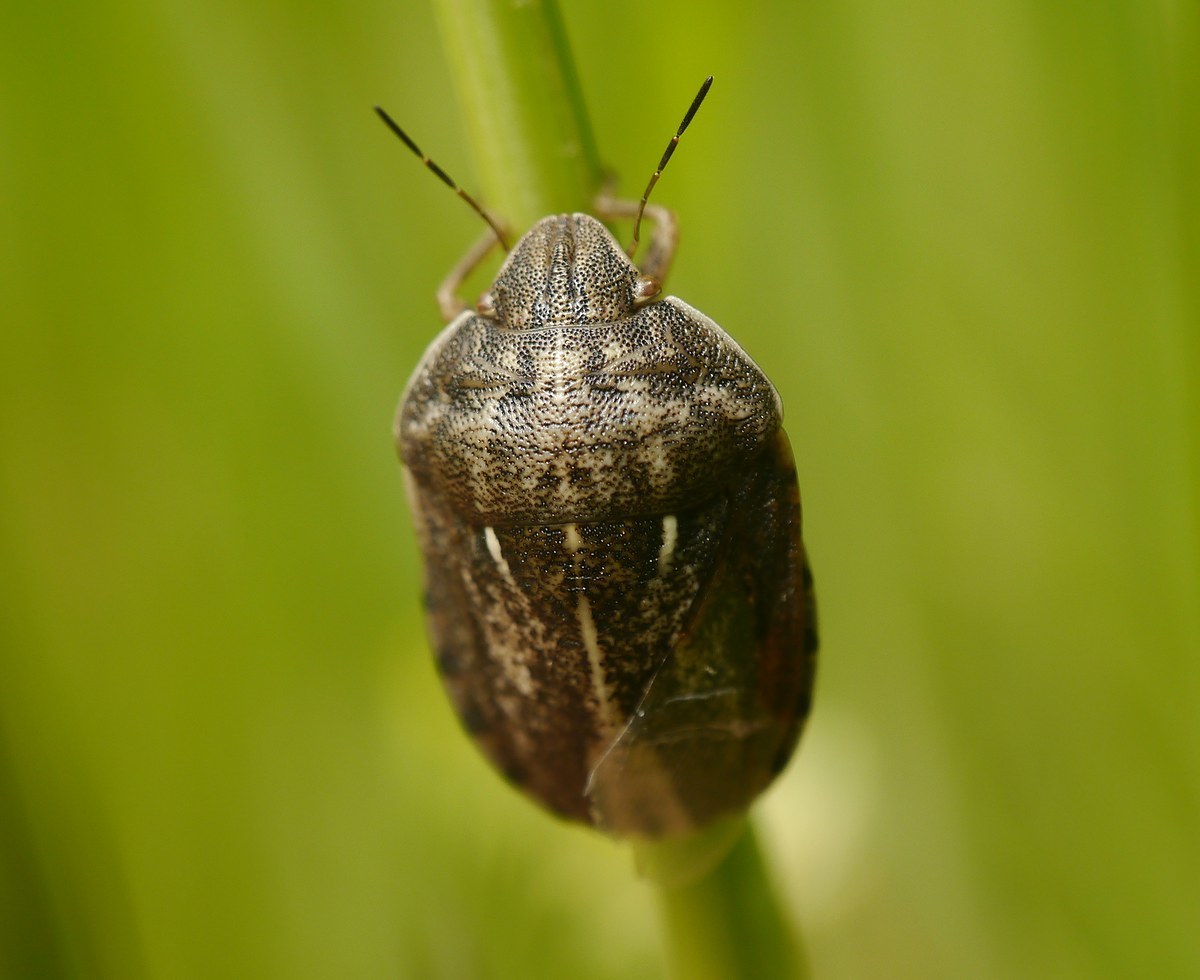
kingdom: Animalia
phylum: Arthropoda
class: Insecta
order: Hemiptera
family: Scutelleridae
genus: Eurygaster
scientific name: Eurygaster integriceps
